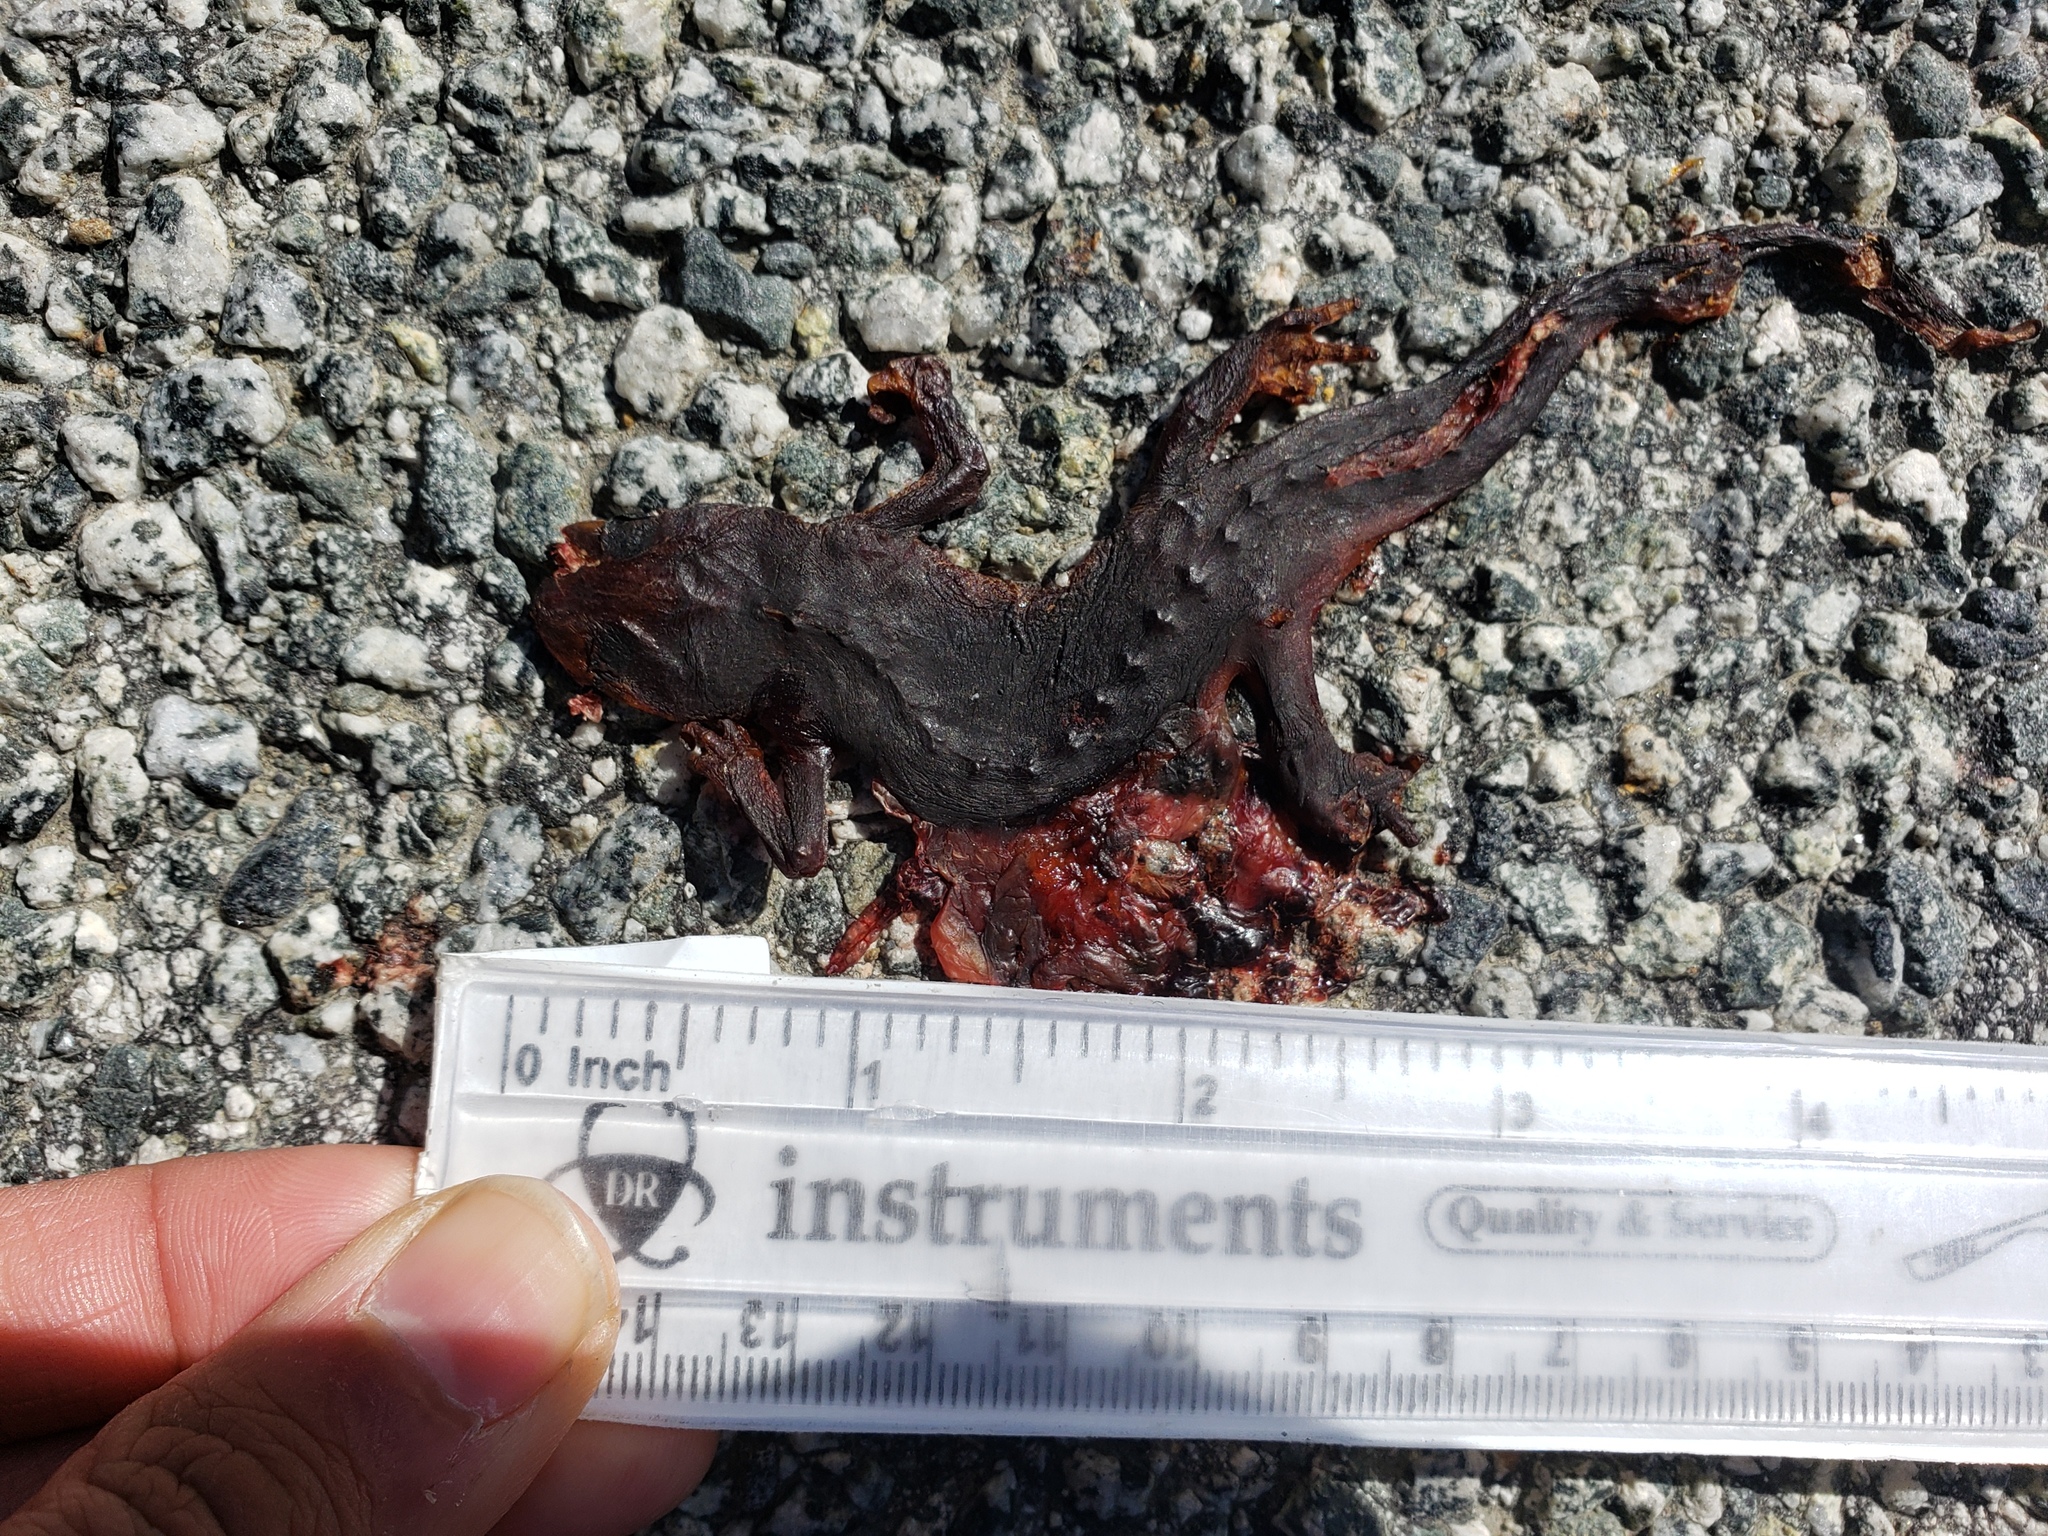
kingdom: Animalia
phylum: Chordata
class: Amphibia
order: Caudata
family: Salamandridae
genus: Taricha
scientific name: Taricha
